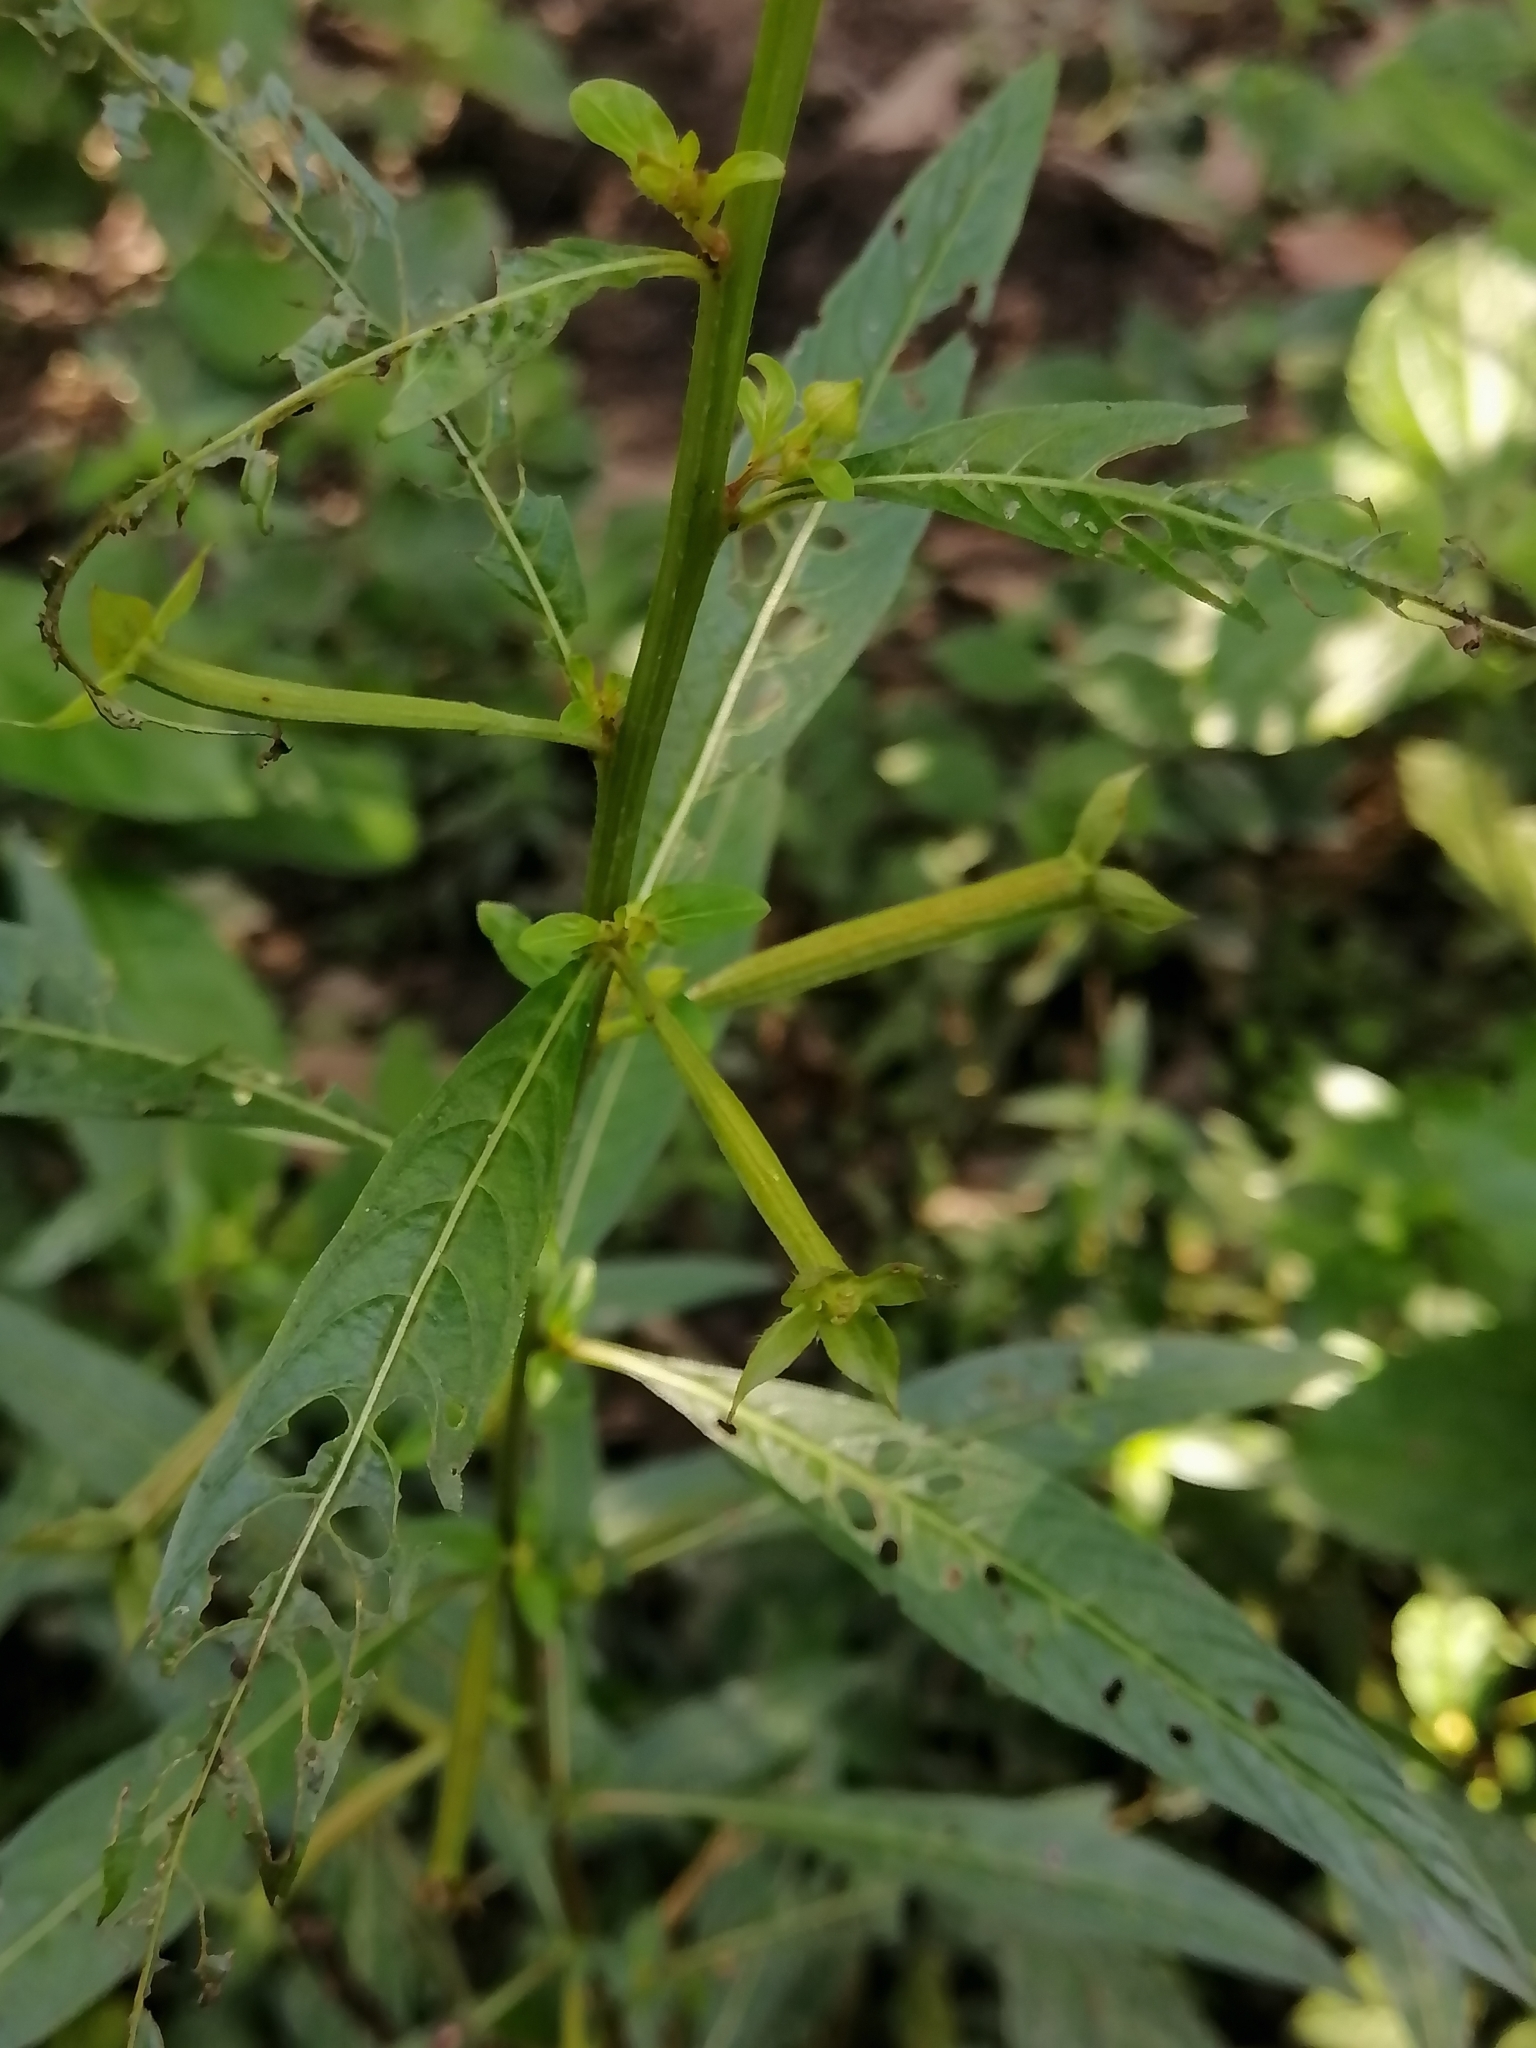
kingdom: Plantae
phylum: Tracheophyta
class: Magnoliopsida
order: Myrtales
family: Onagraceae
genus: Ludwigia
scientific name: Ludwigia octovalvis
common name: Water-primrose
